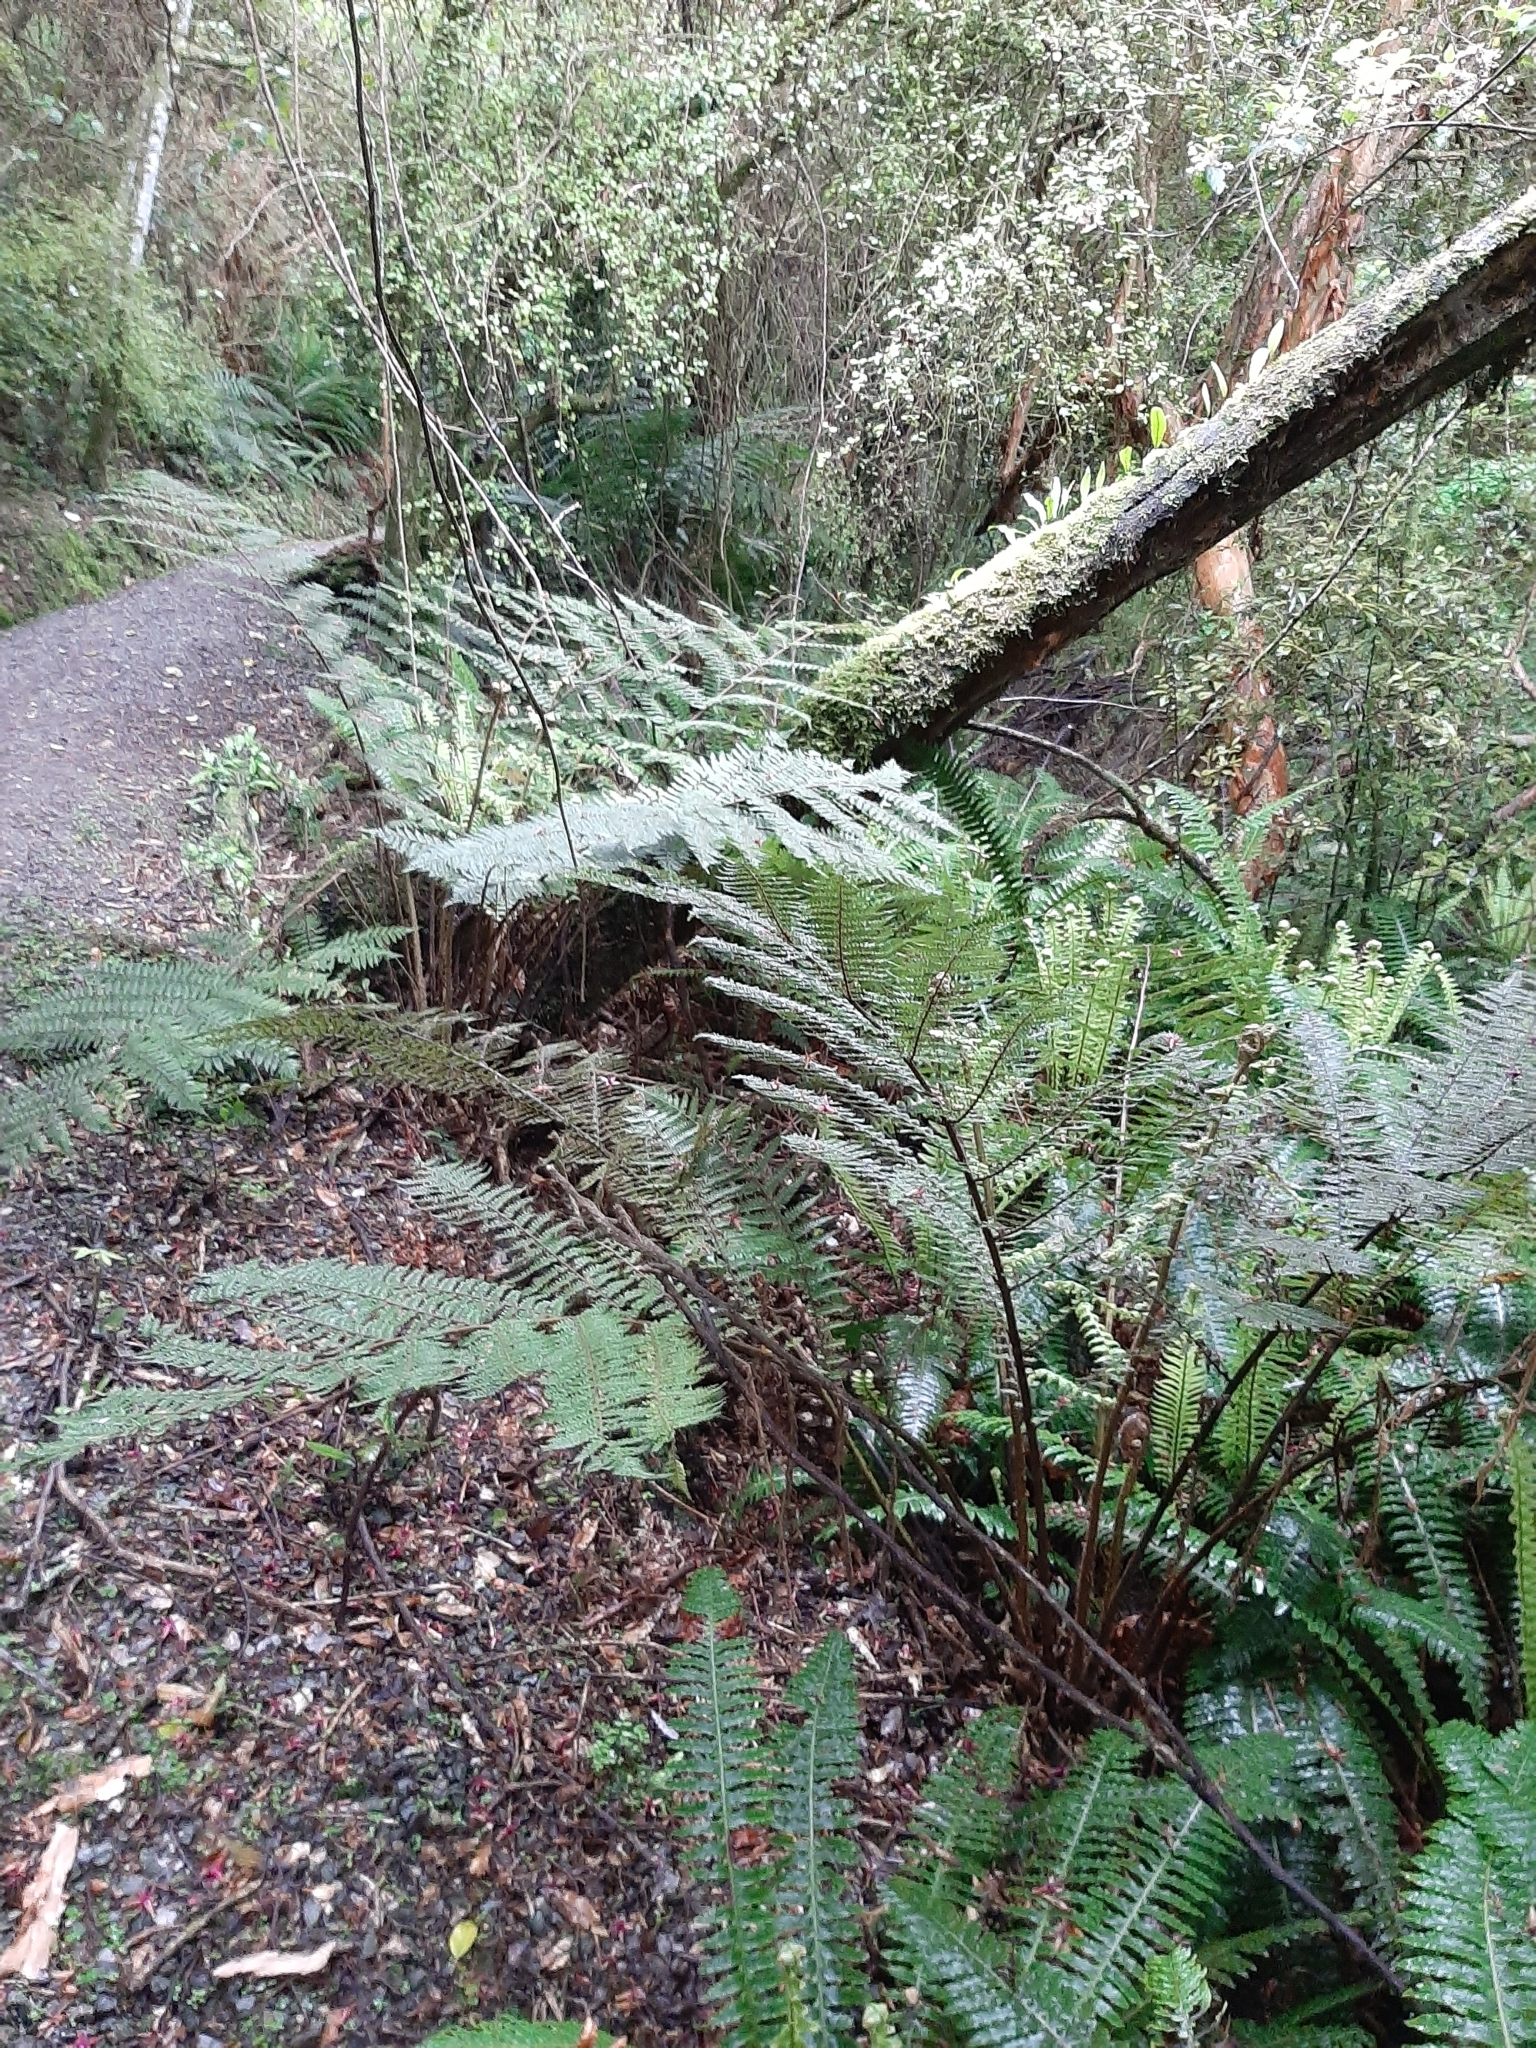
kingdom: Plantae
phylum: Tracheophyta
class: Polypodiopsida
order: Cyatheales
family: Cyatheaceae
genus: Alsophila
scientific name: Alsophila colensoi
